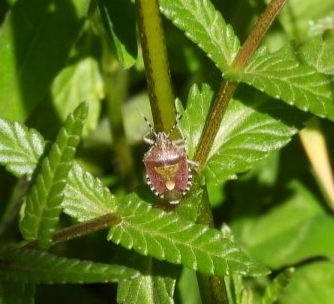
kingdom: Animalia
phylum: Arthropoda
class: Insecta
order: Hemiptera
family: Pentatomidae
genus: Dolycoris
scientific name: Dolycoris baccarum
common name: Sloe bug
